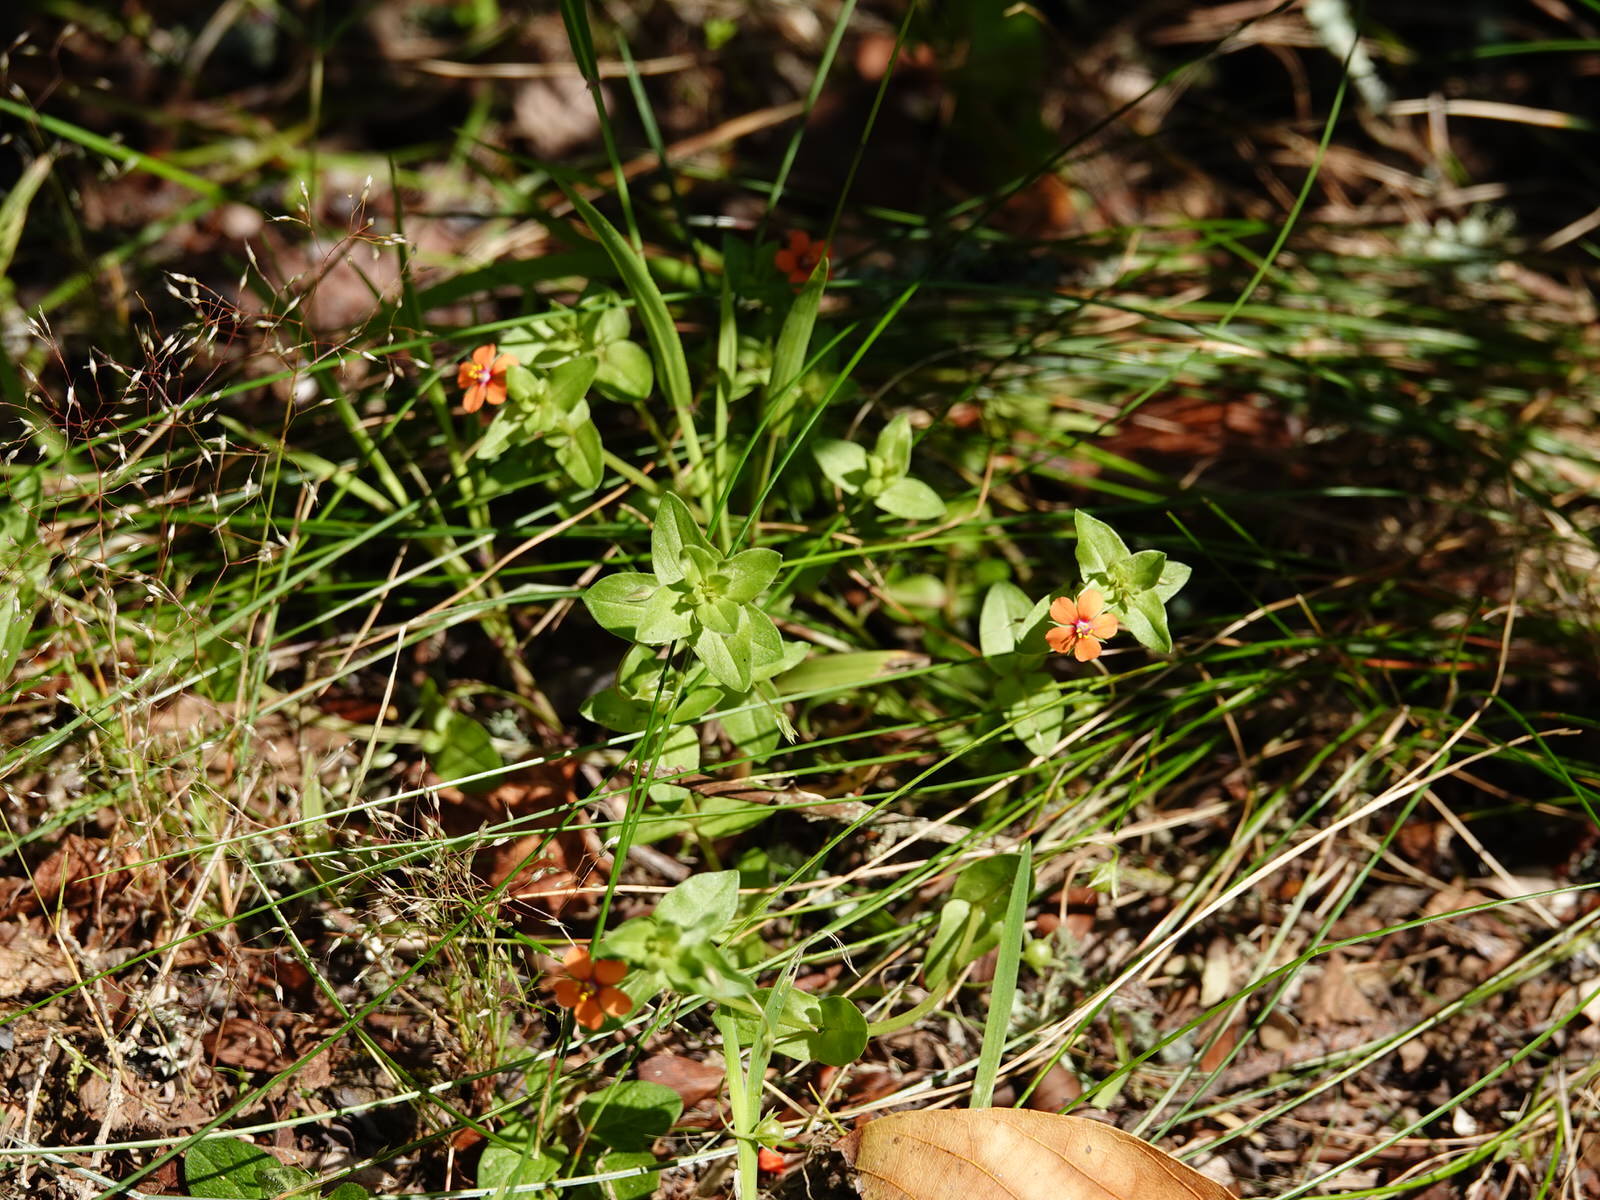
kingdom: Plantae
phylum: Tracheophyta
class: Magnoliopsida
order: Ericales
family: Primulaceae
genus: Lysimachia
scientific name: Lysimachia arvensis
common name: Scarlet pimpernel
